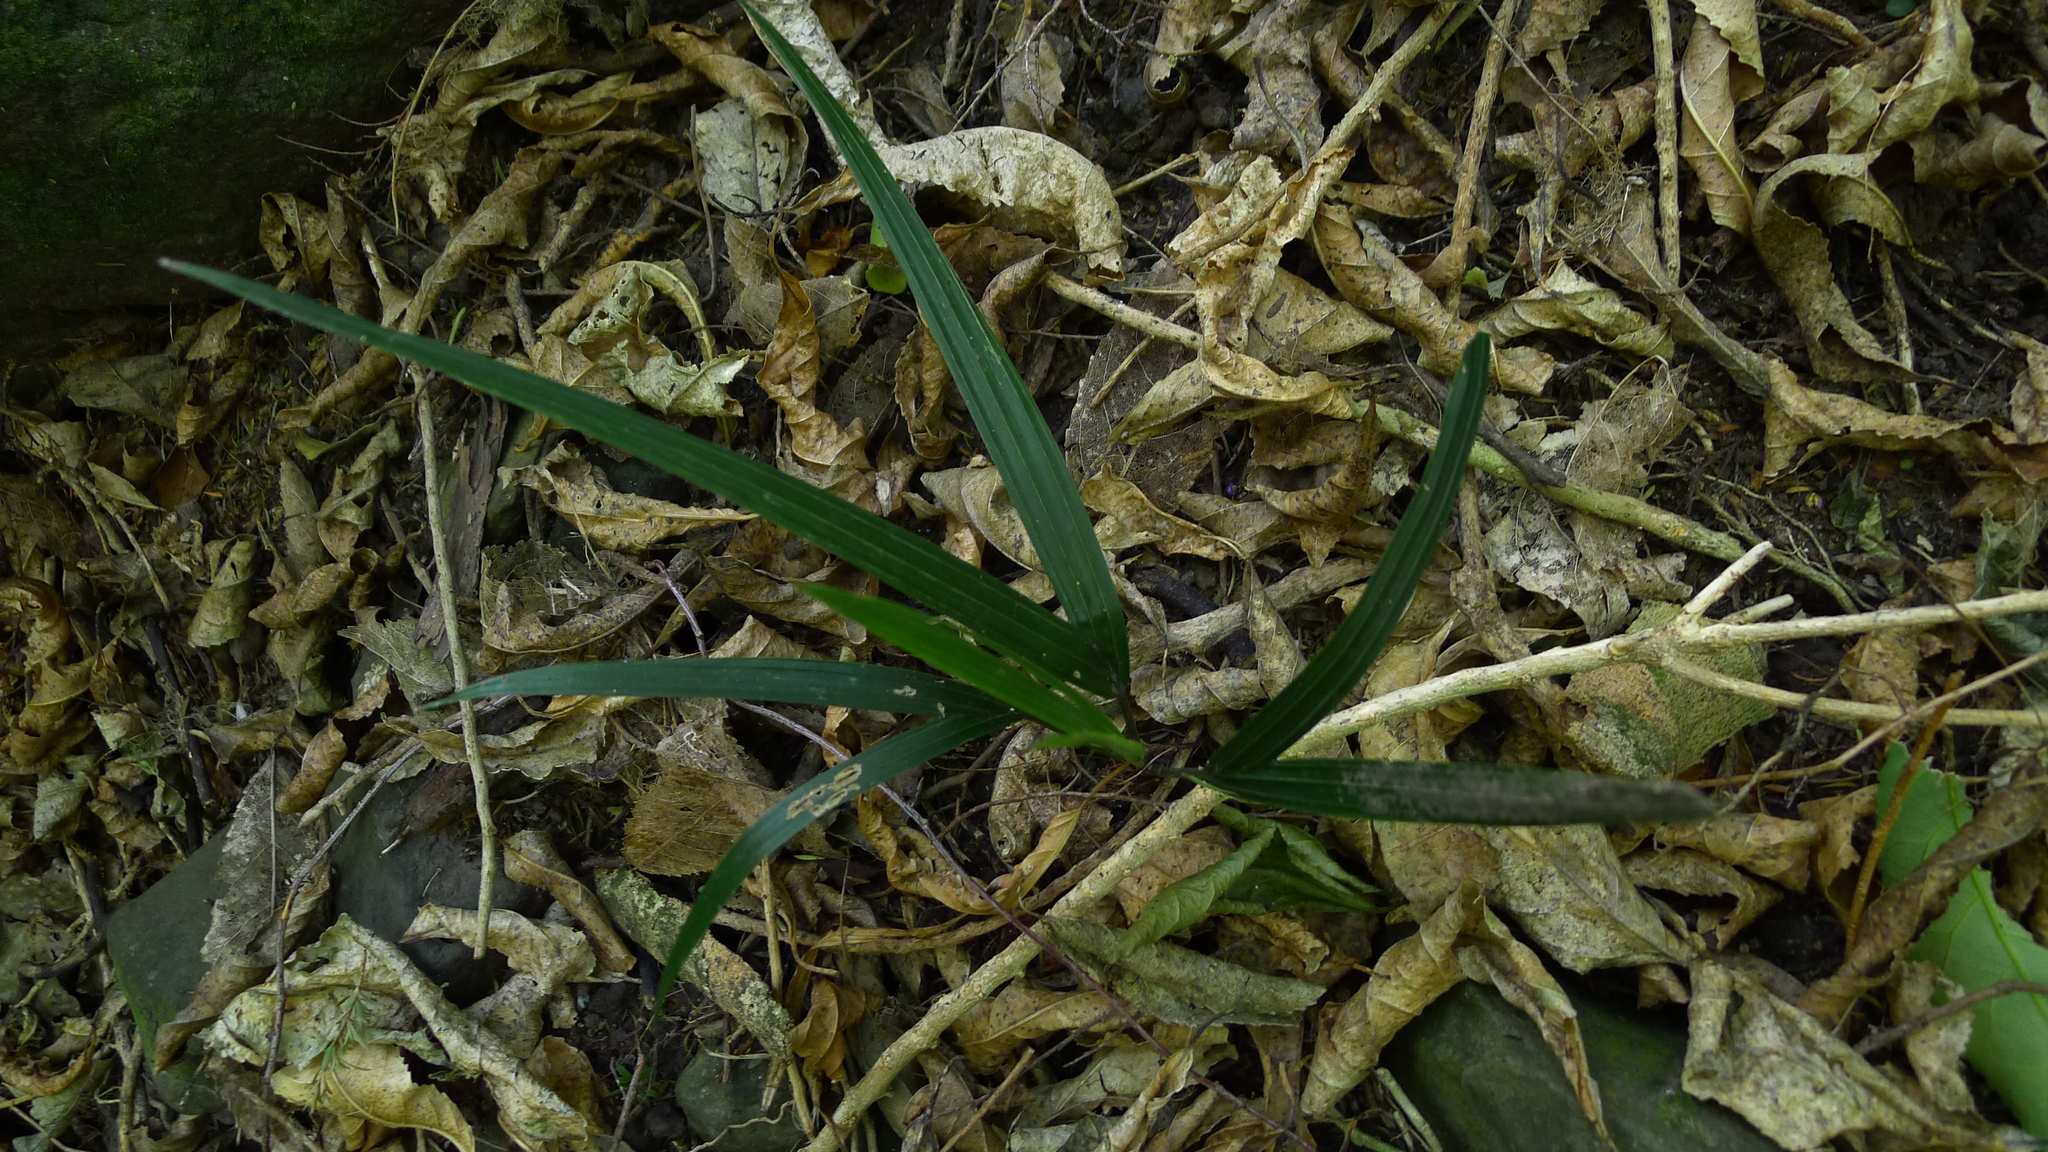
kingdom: Plantae
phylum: Tracheophyta
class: Liliopsida
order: Arecales
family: Arecaceae
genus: Rhopalostylis
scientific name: Rhopalostylis sapida
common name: Feather-duster palm
